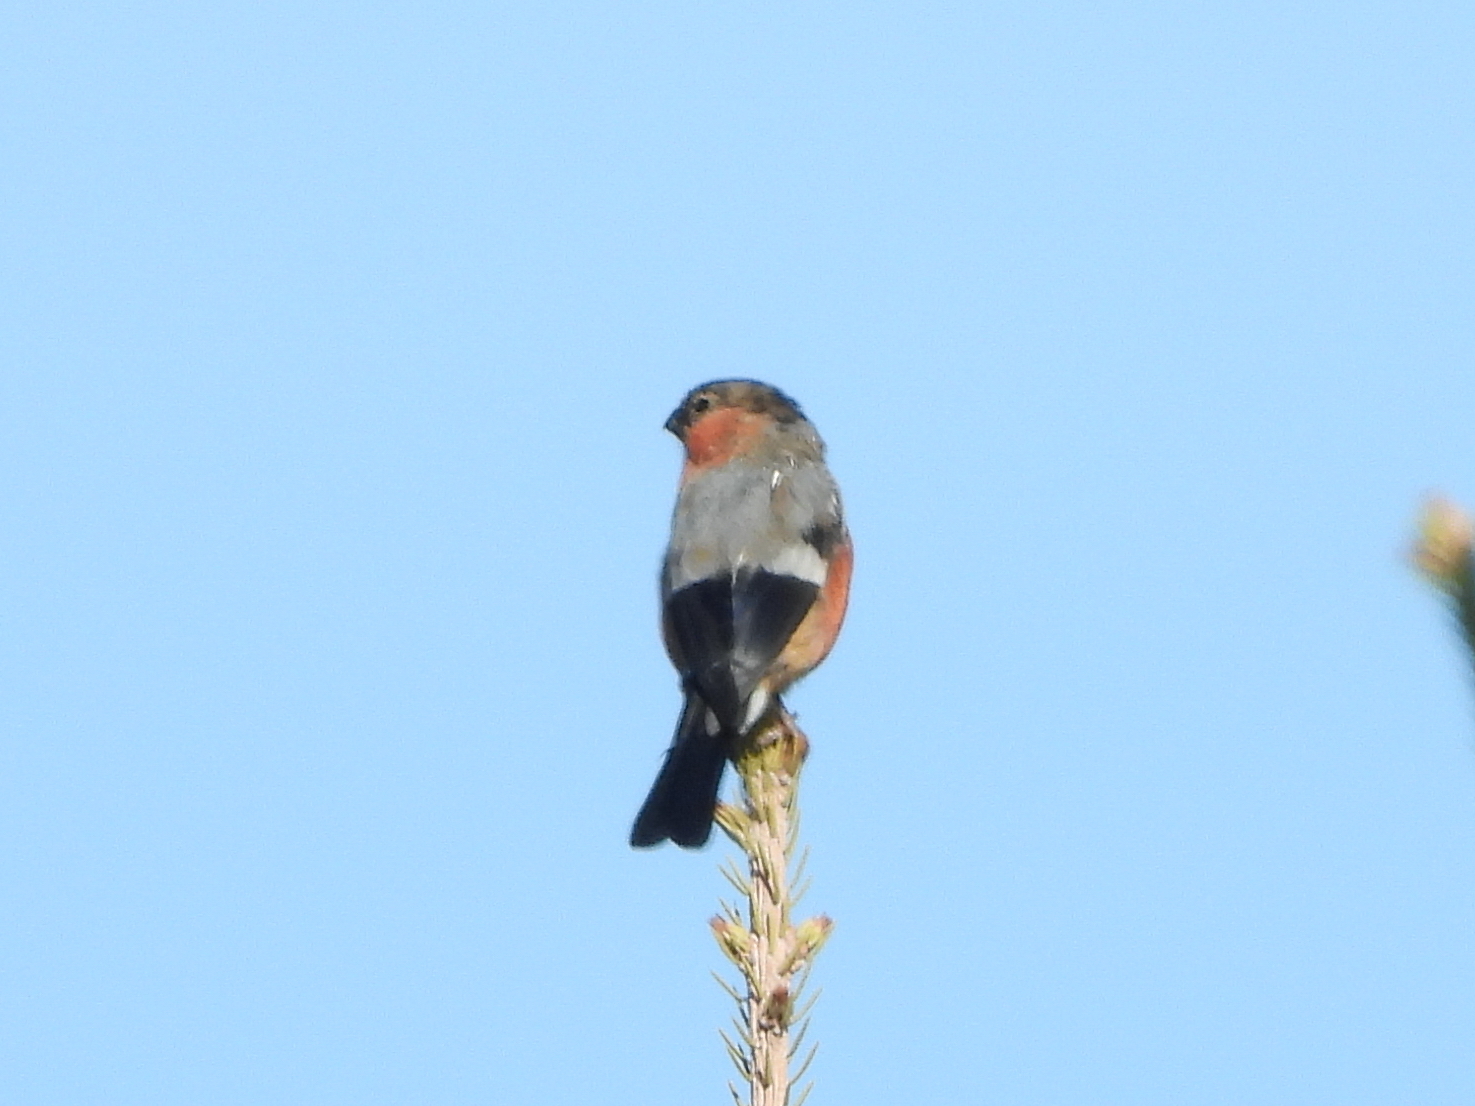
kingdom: Animalia
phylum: Chordata
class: Aves
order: Passeriformes
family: Fringillidae
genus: Pyrrhula
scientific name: Pyrrhula pyrrhula
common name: Eurasian bullfinch
